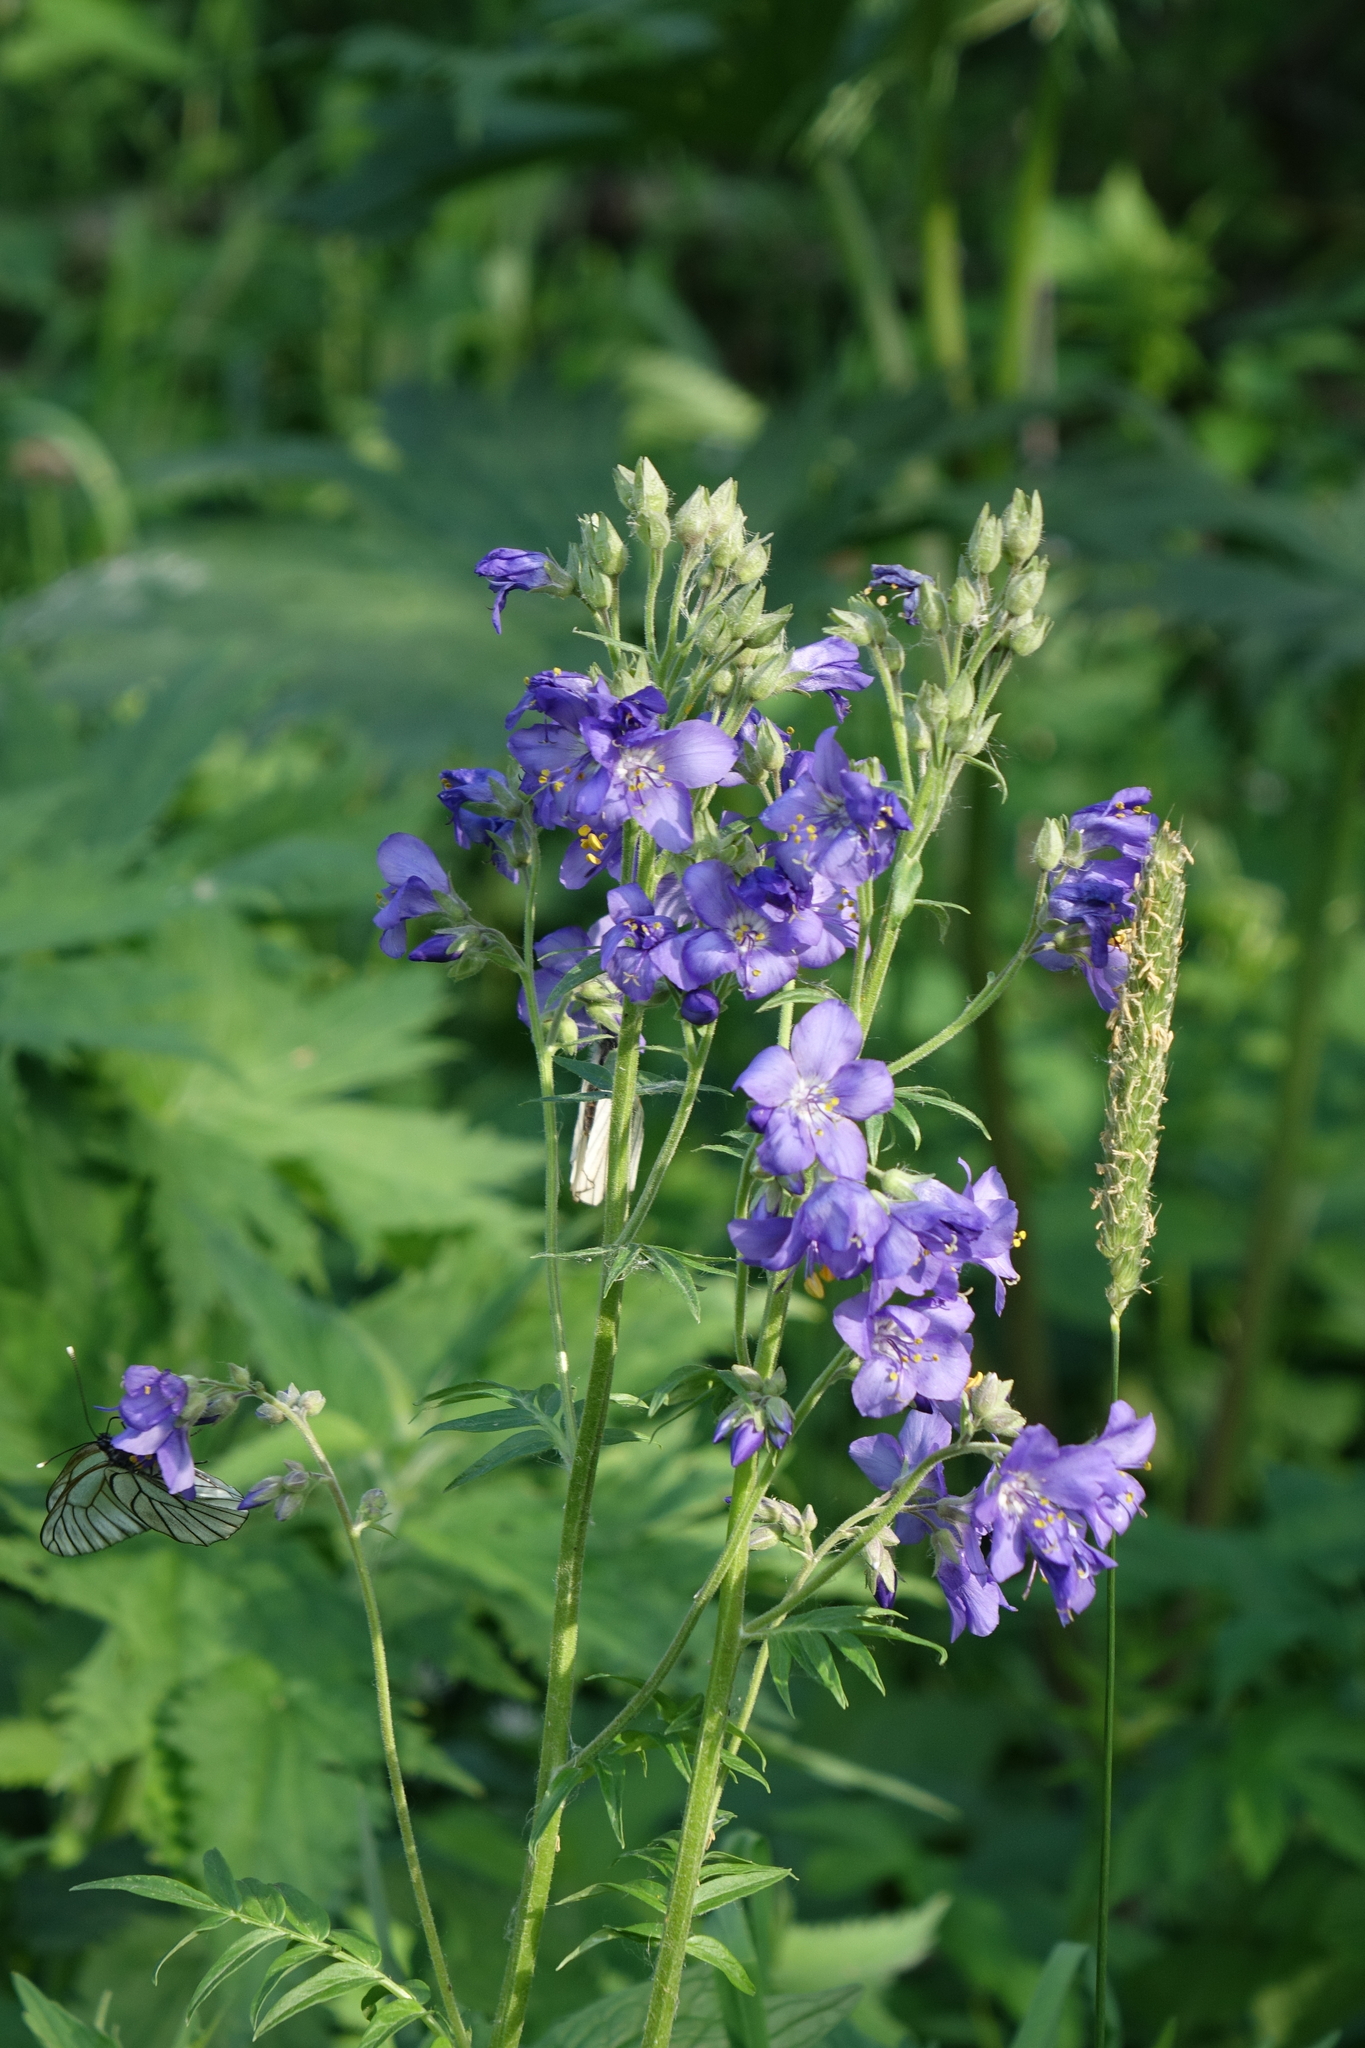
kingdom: Plantae
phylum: Tracheophyta
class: Magnoliopsida
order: Ericales
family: Polemoniaceae
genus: Polemonium
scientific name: Polemonium caeruleum
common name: Jacob's-ladder
